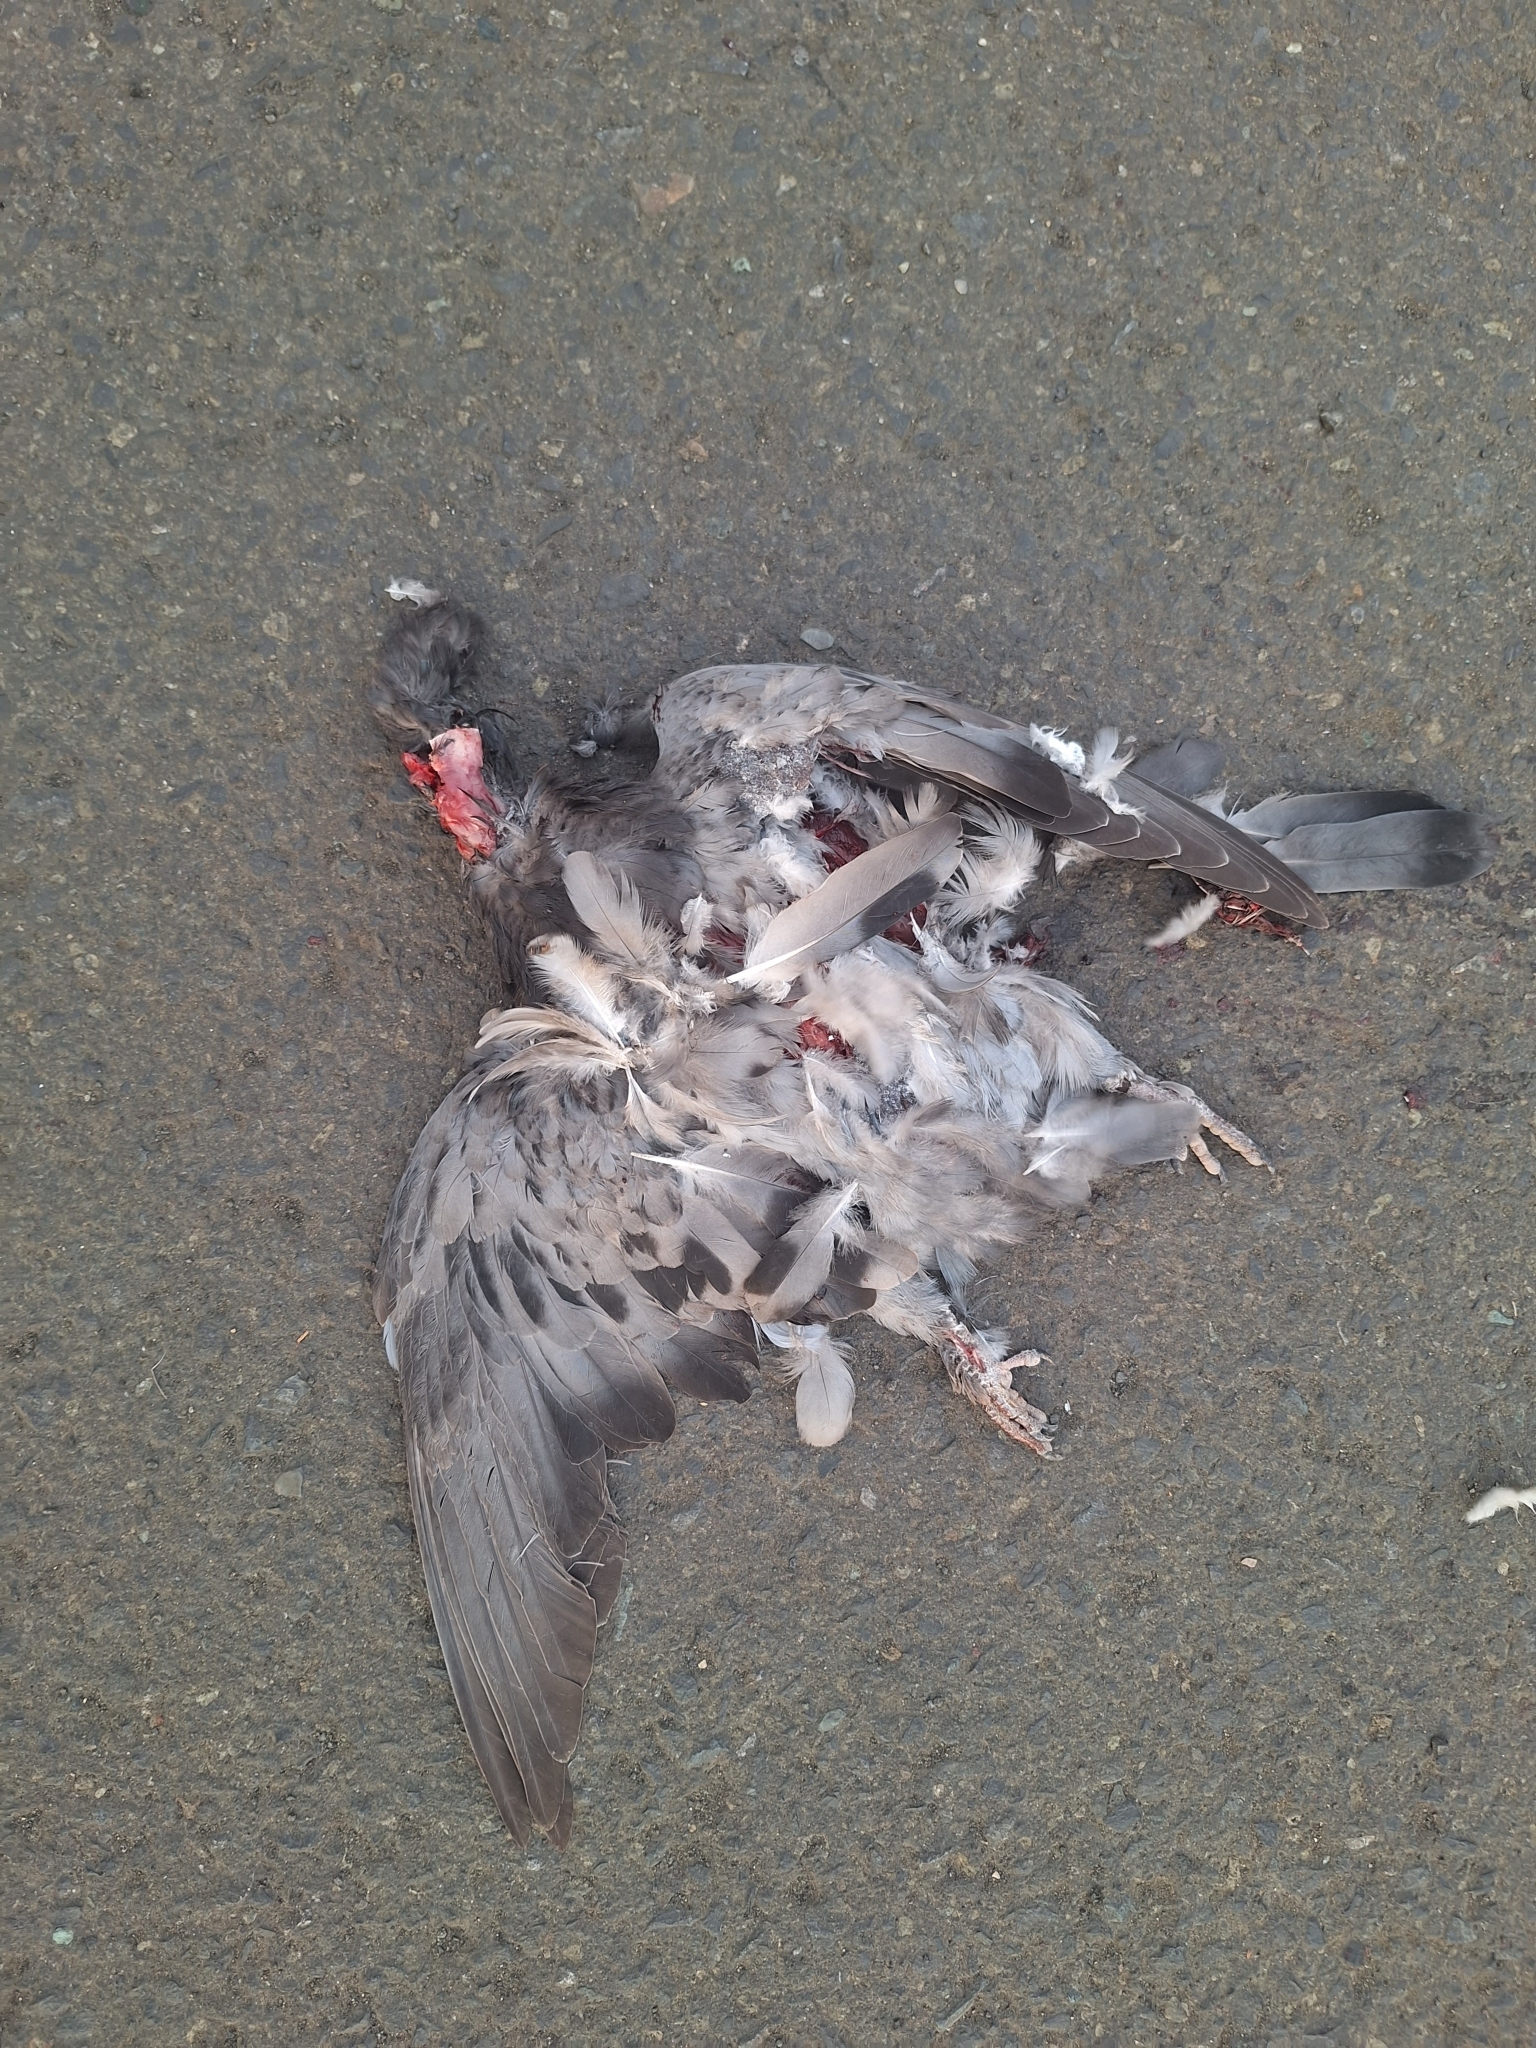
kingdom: Animalia
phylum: Chordata
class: Aves
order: Columbiformes
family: Columbidae
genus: Columba
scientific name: Columba livia
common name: Rock pigeon
